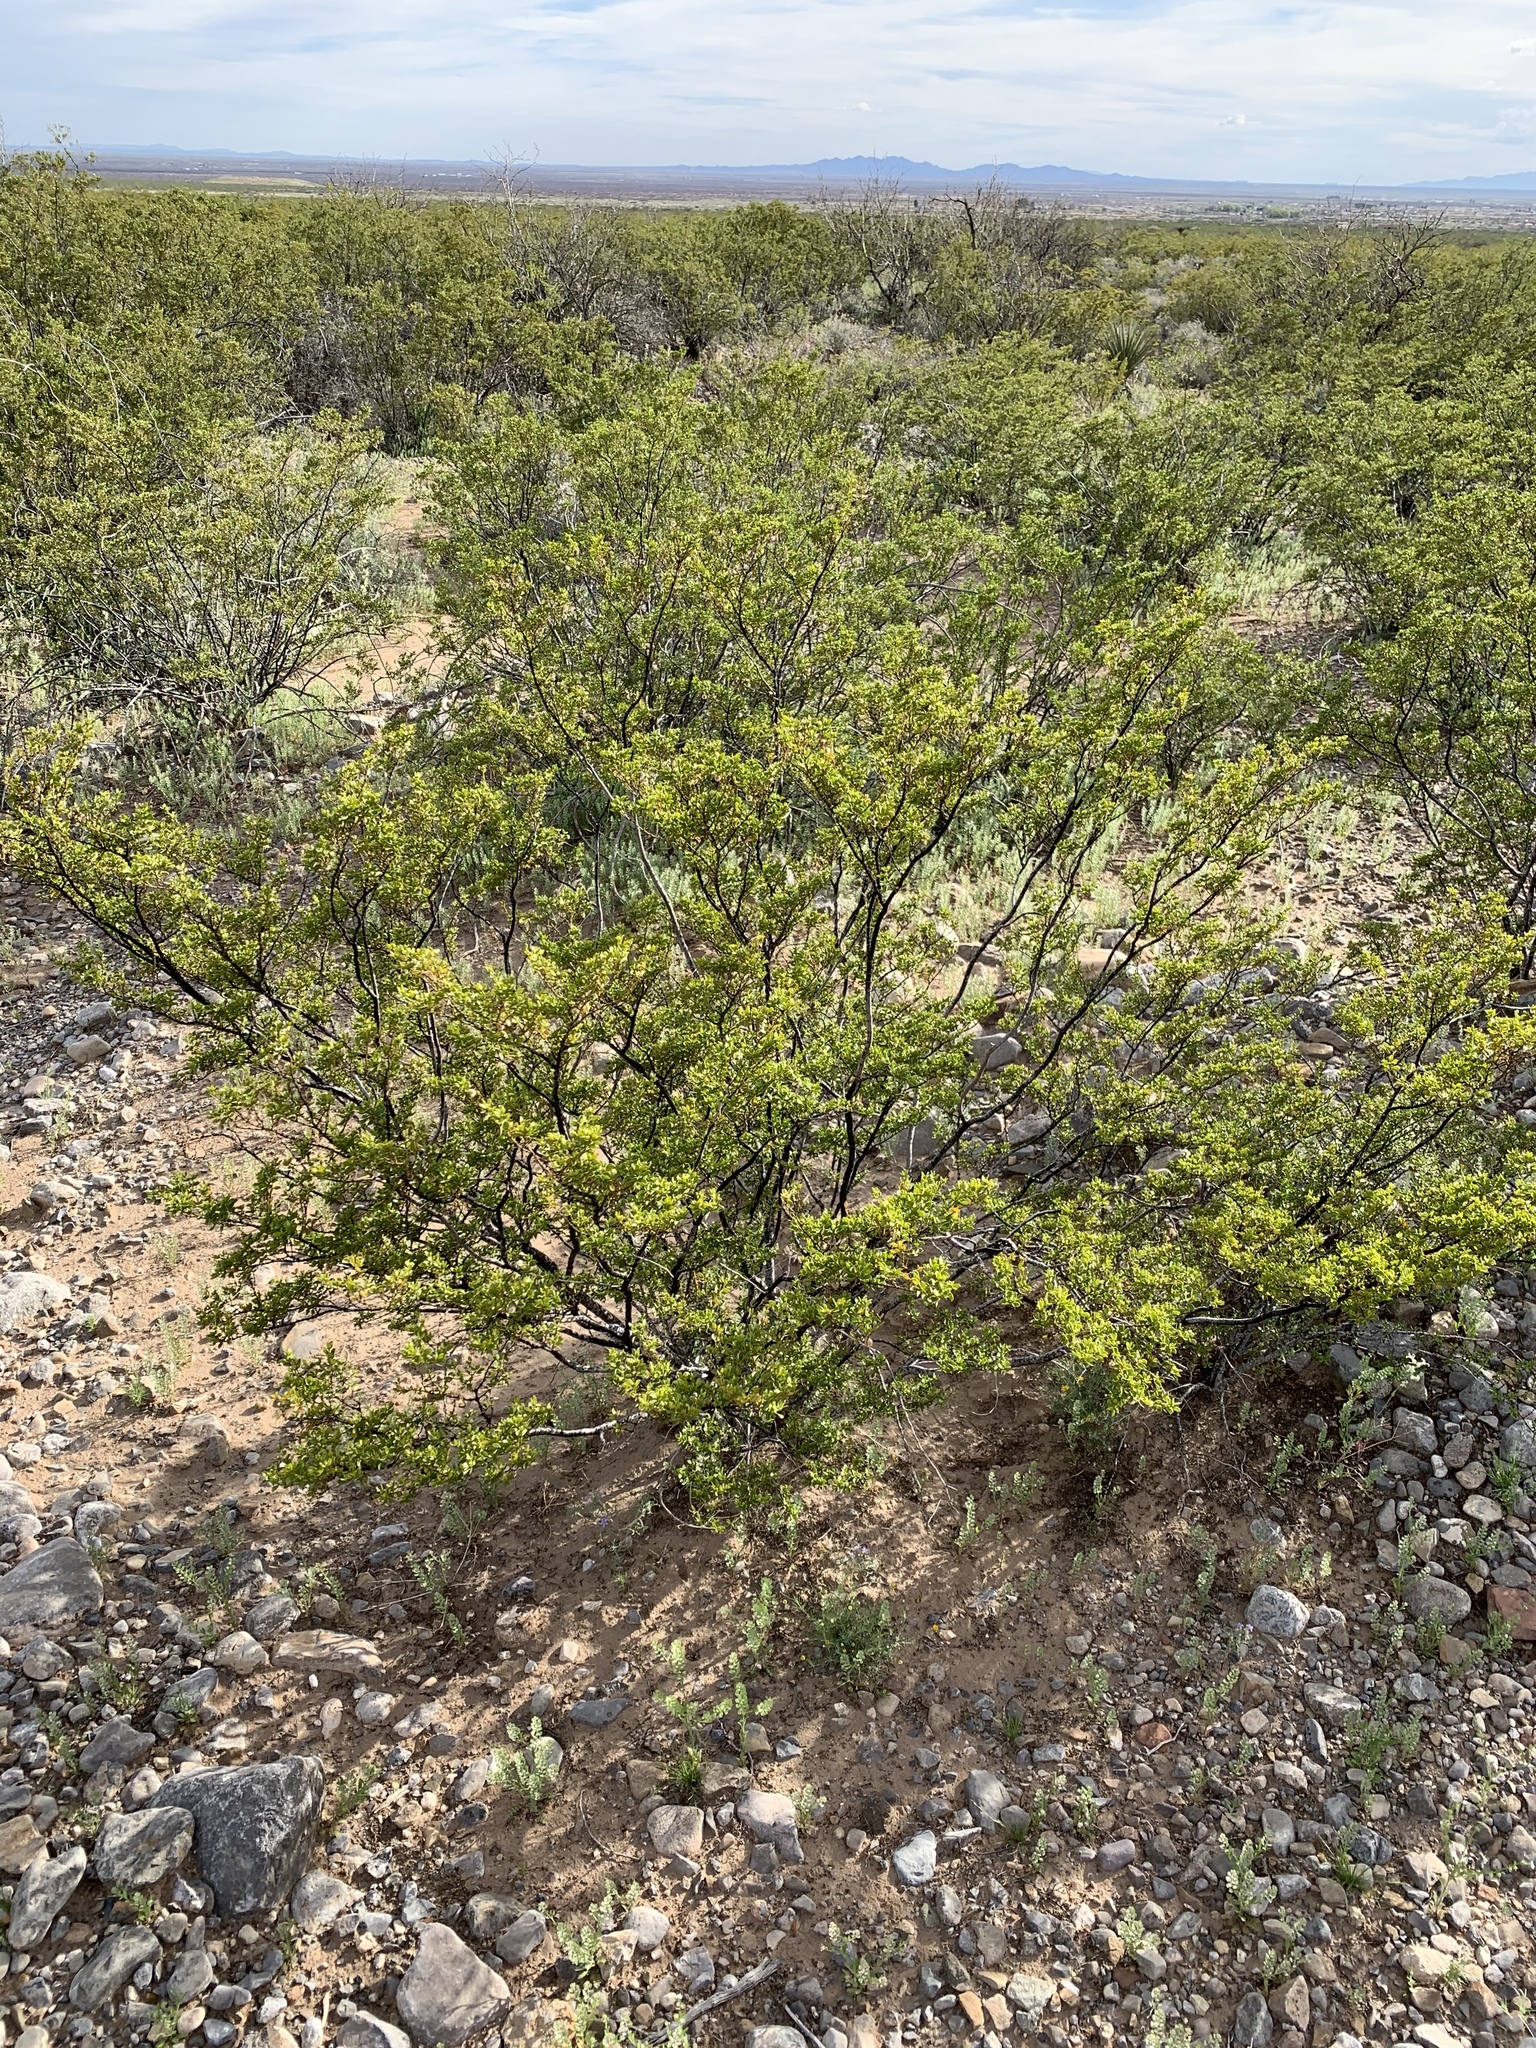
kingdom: Plantae
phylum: Tracheophyta
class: Magnoliopsida
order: Zygophyllales
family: Zygophyllaceae
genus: Larrea
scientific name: Larrea tridentata
